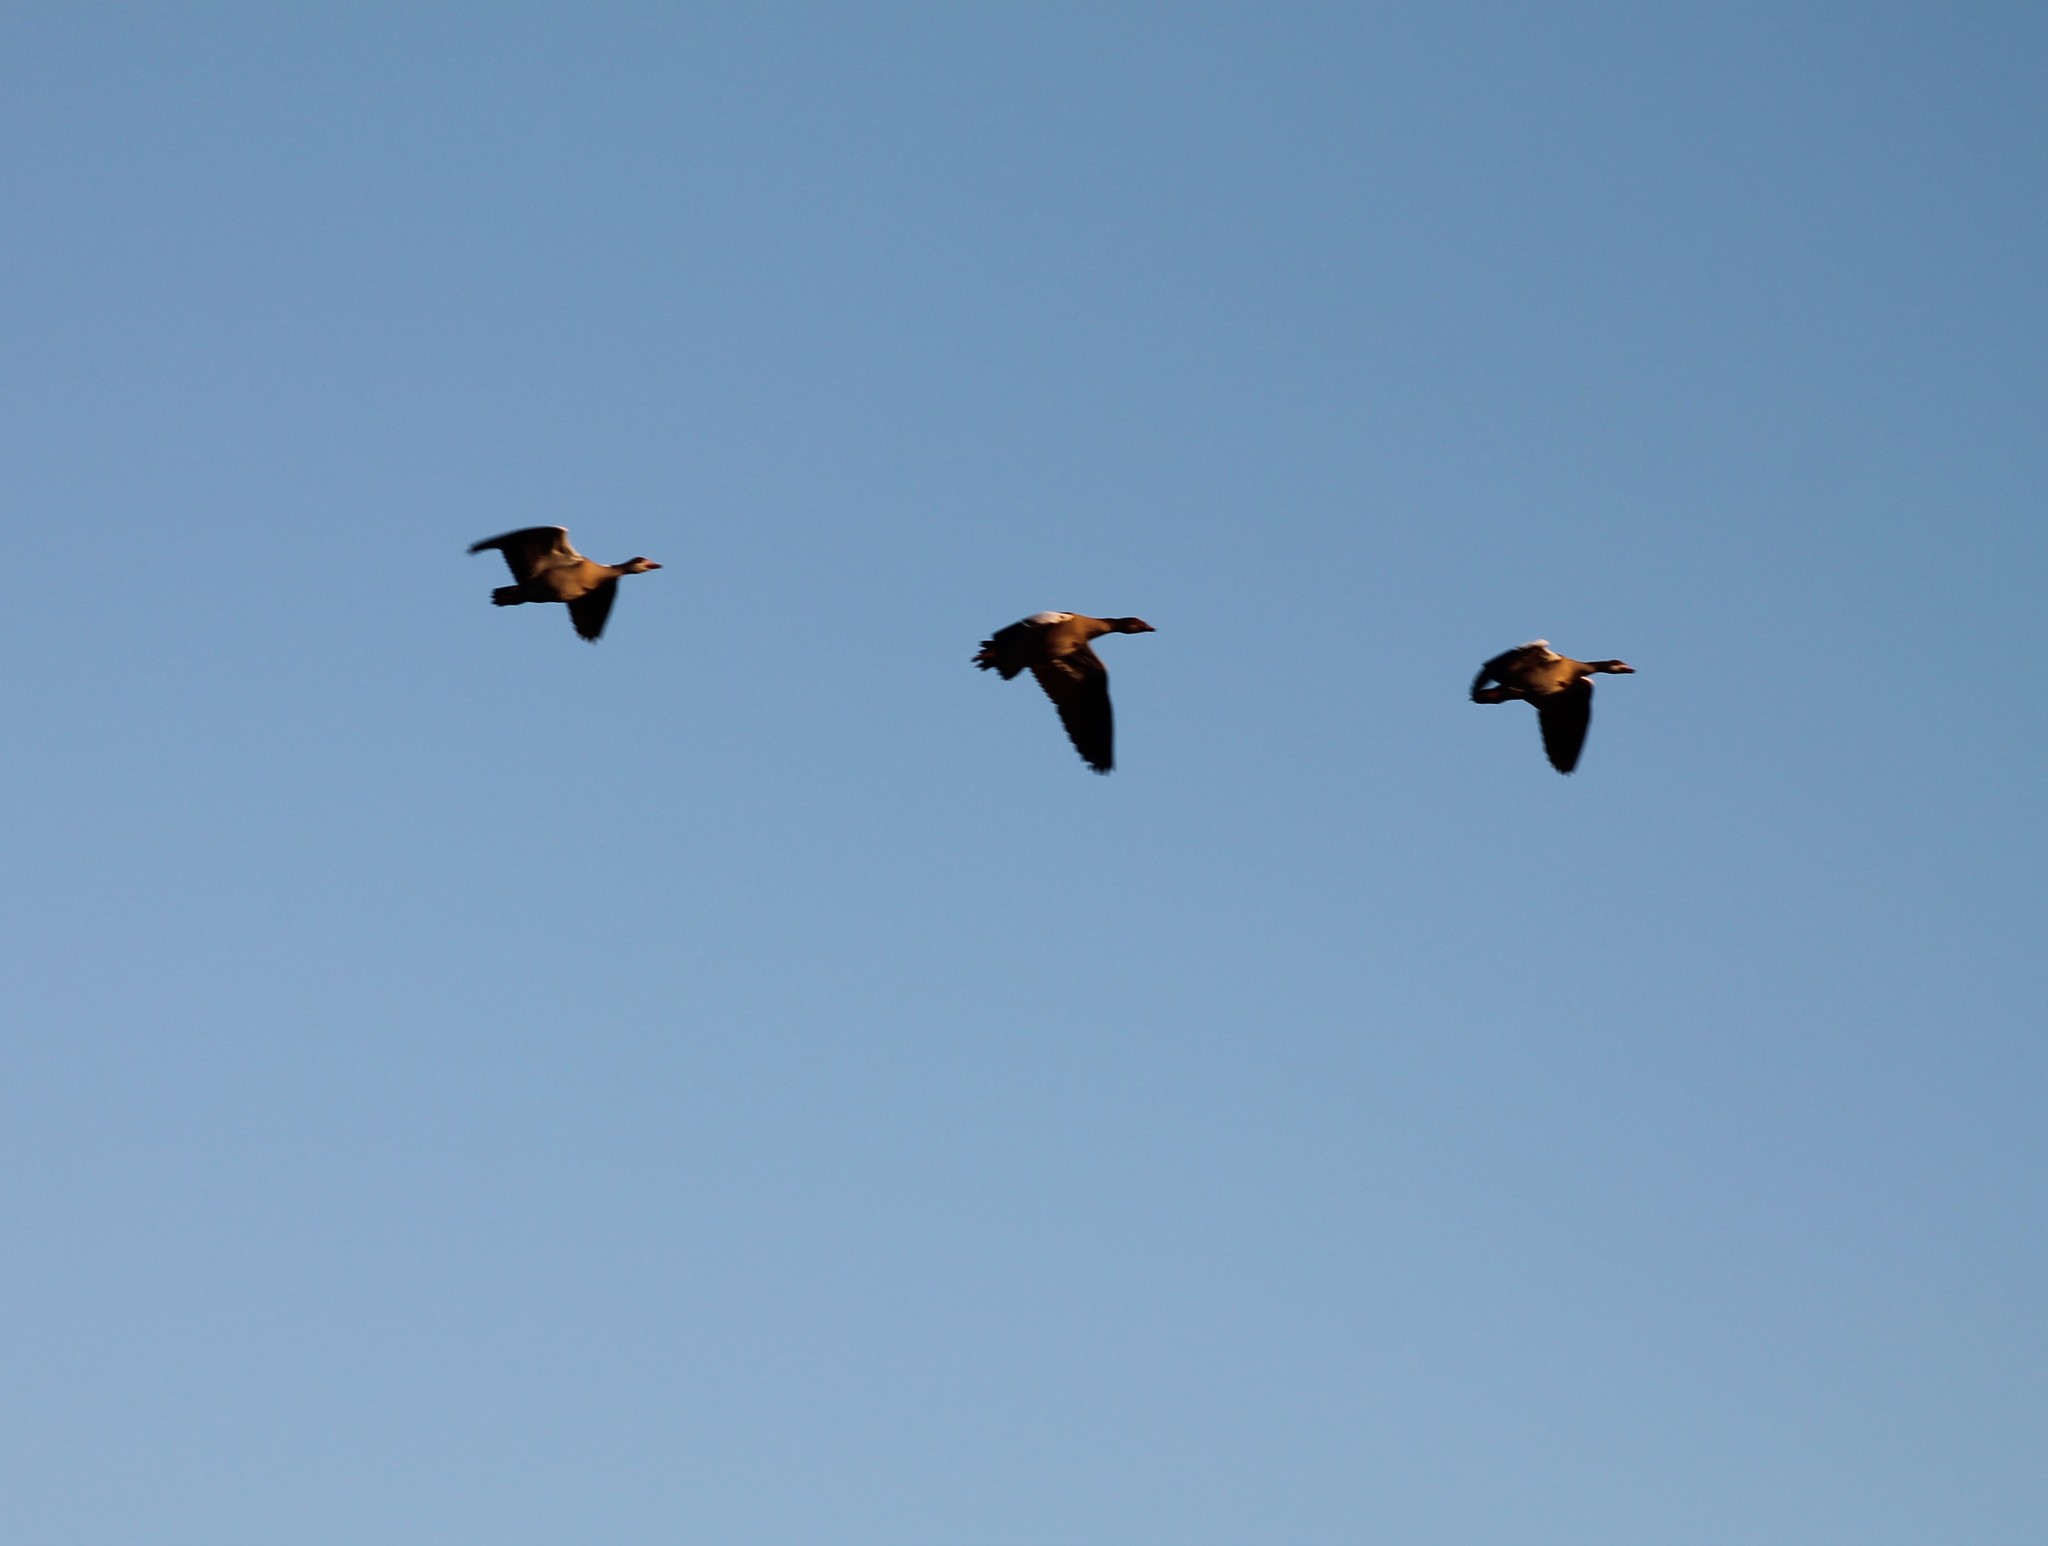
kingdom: Animalia
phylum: Chordata
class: Aves
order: Anseriformes
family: Anatidae
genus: Alopochen
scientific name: Alopochen aegyptiaca
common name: Egyptian goose
